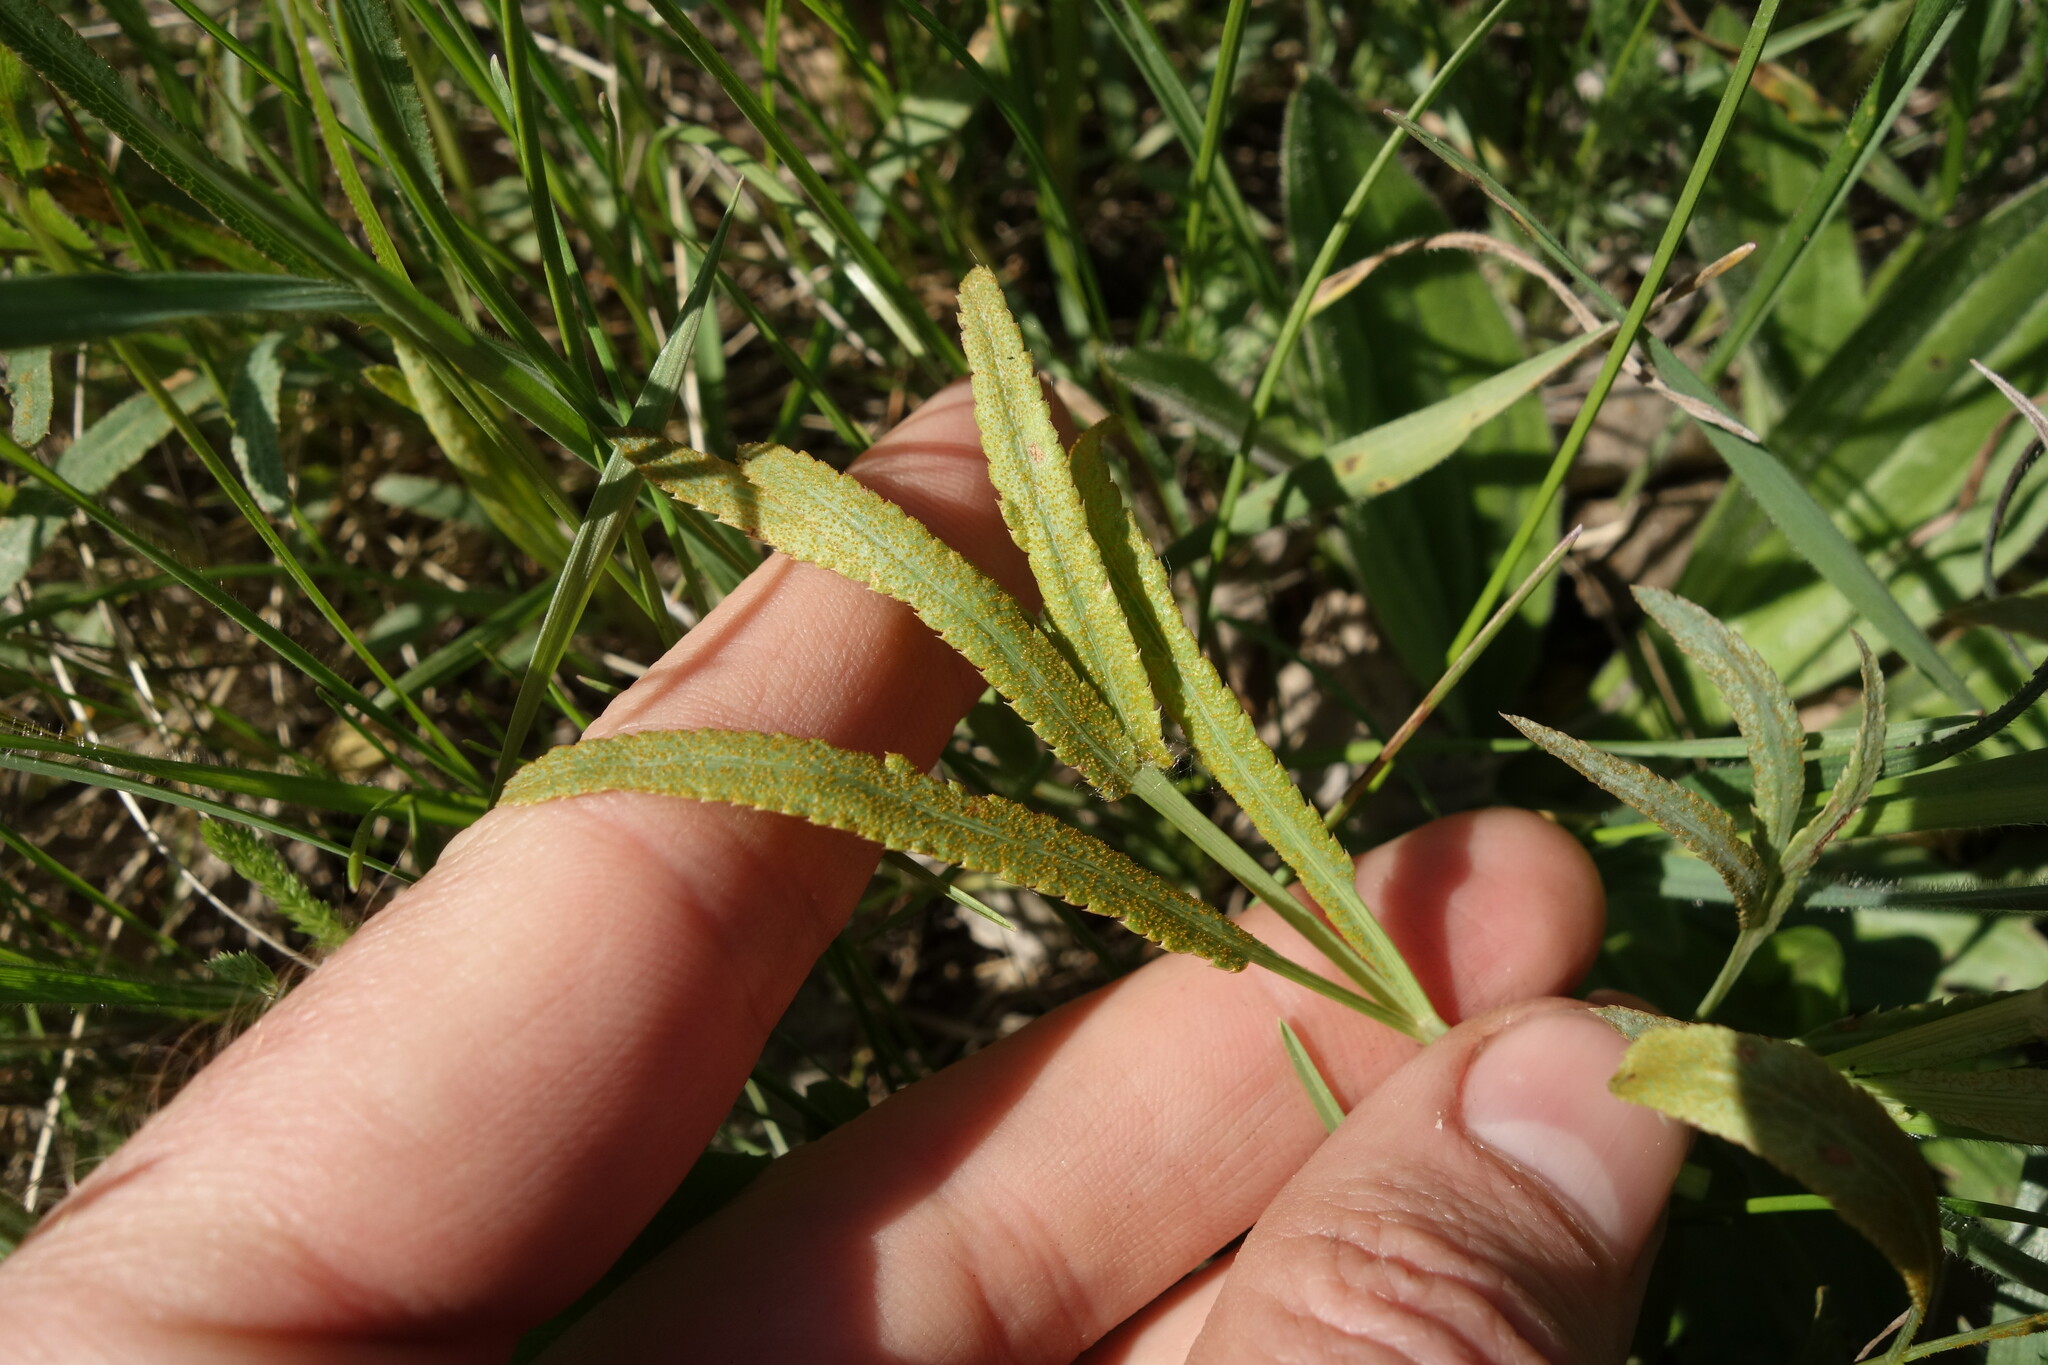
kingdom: Fungi
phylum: Basidiomycota
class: Pucciniomycetes
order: Pucciniales
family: Pucciniaceae
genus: Puccinia
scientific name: Puccinia sii-falcariae
